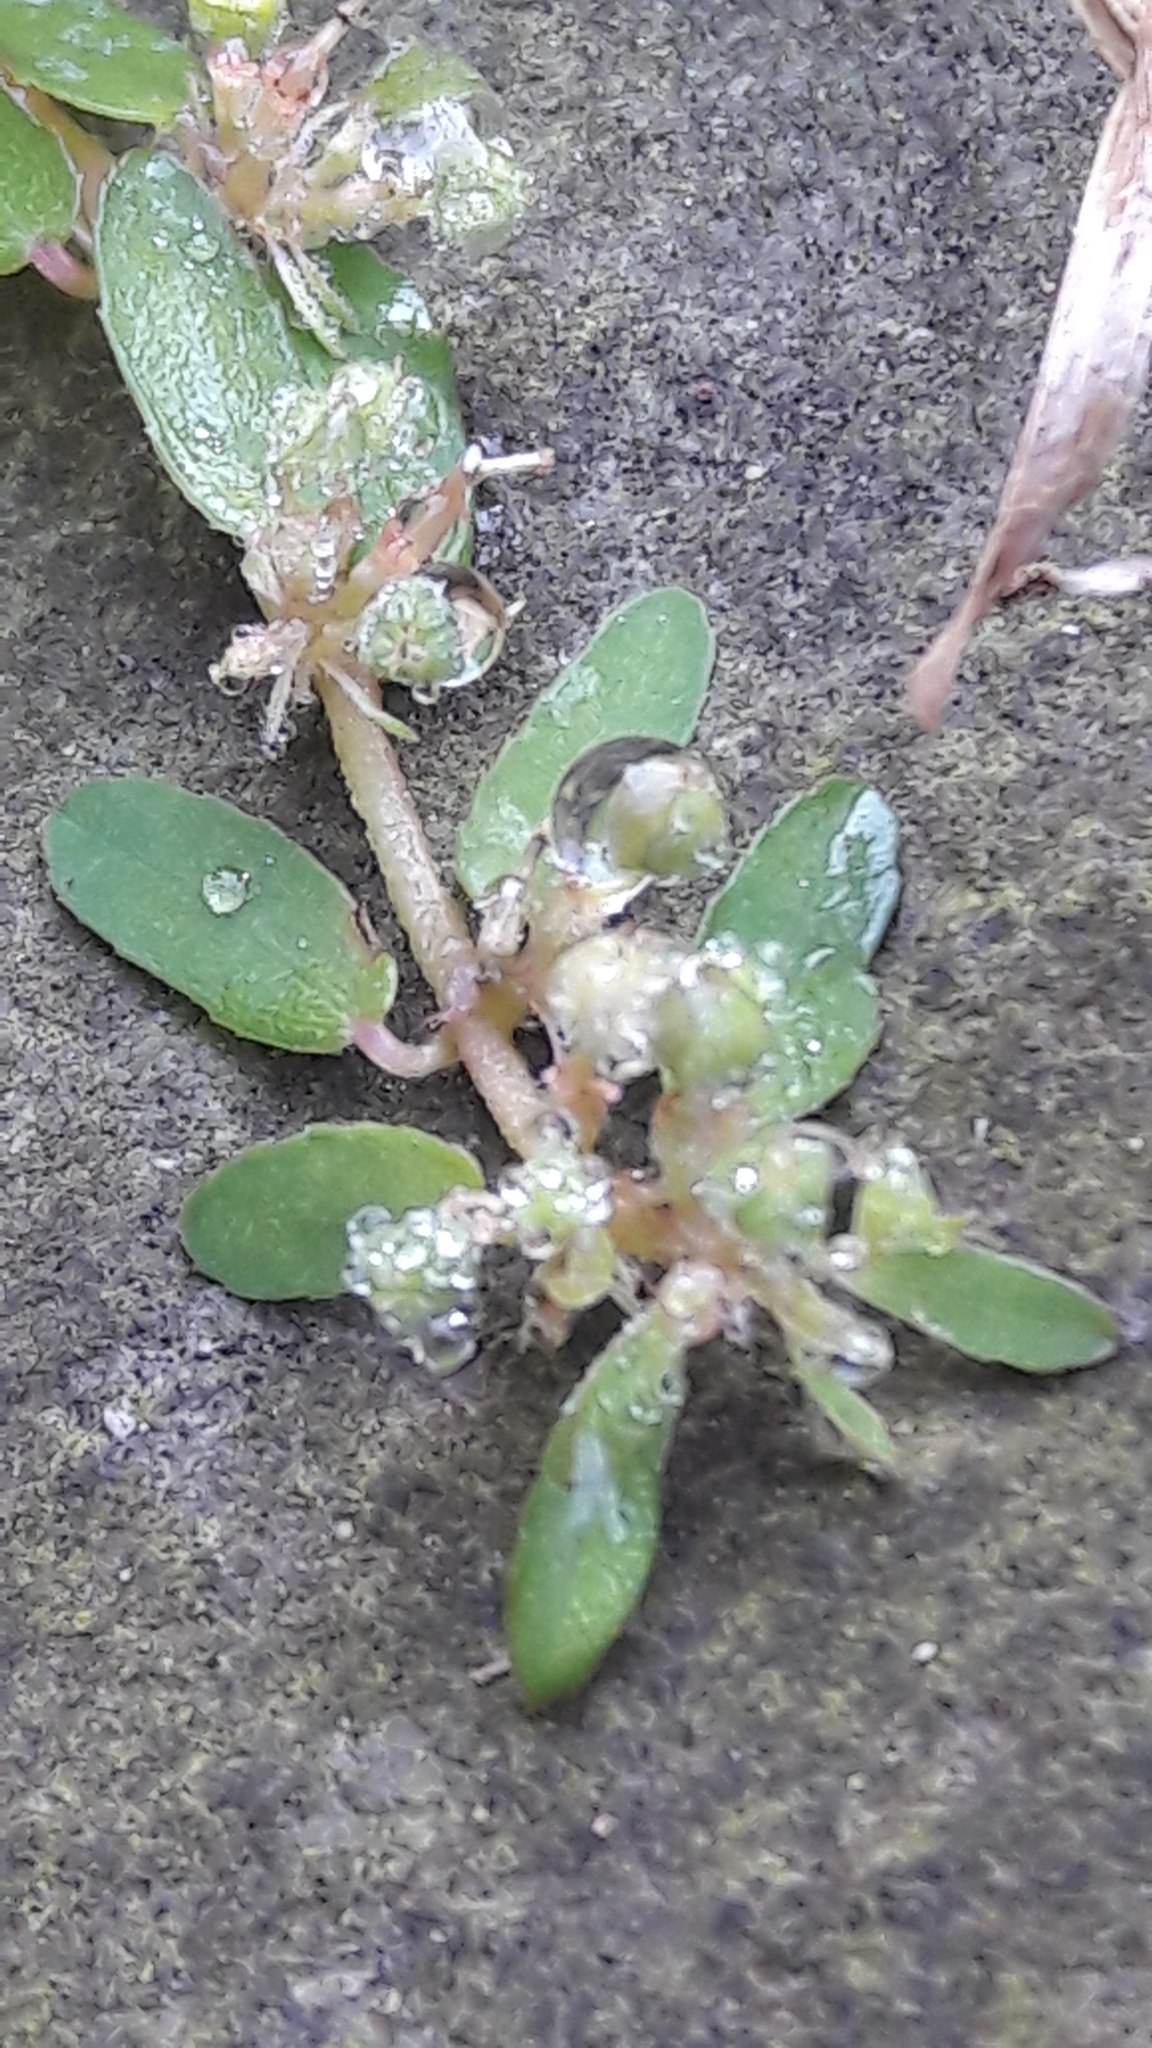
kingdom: Plantae
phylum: Tracheophyta
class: Magnoliopsida
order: Malpighiales
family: Euphorbiaceae
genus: Euphorbia
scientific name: Euphorbia maculata
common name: Spotted spurge
